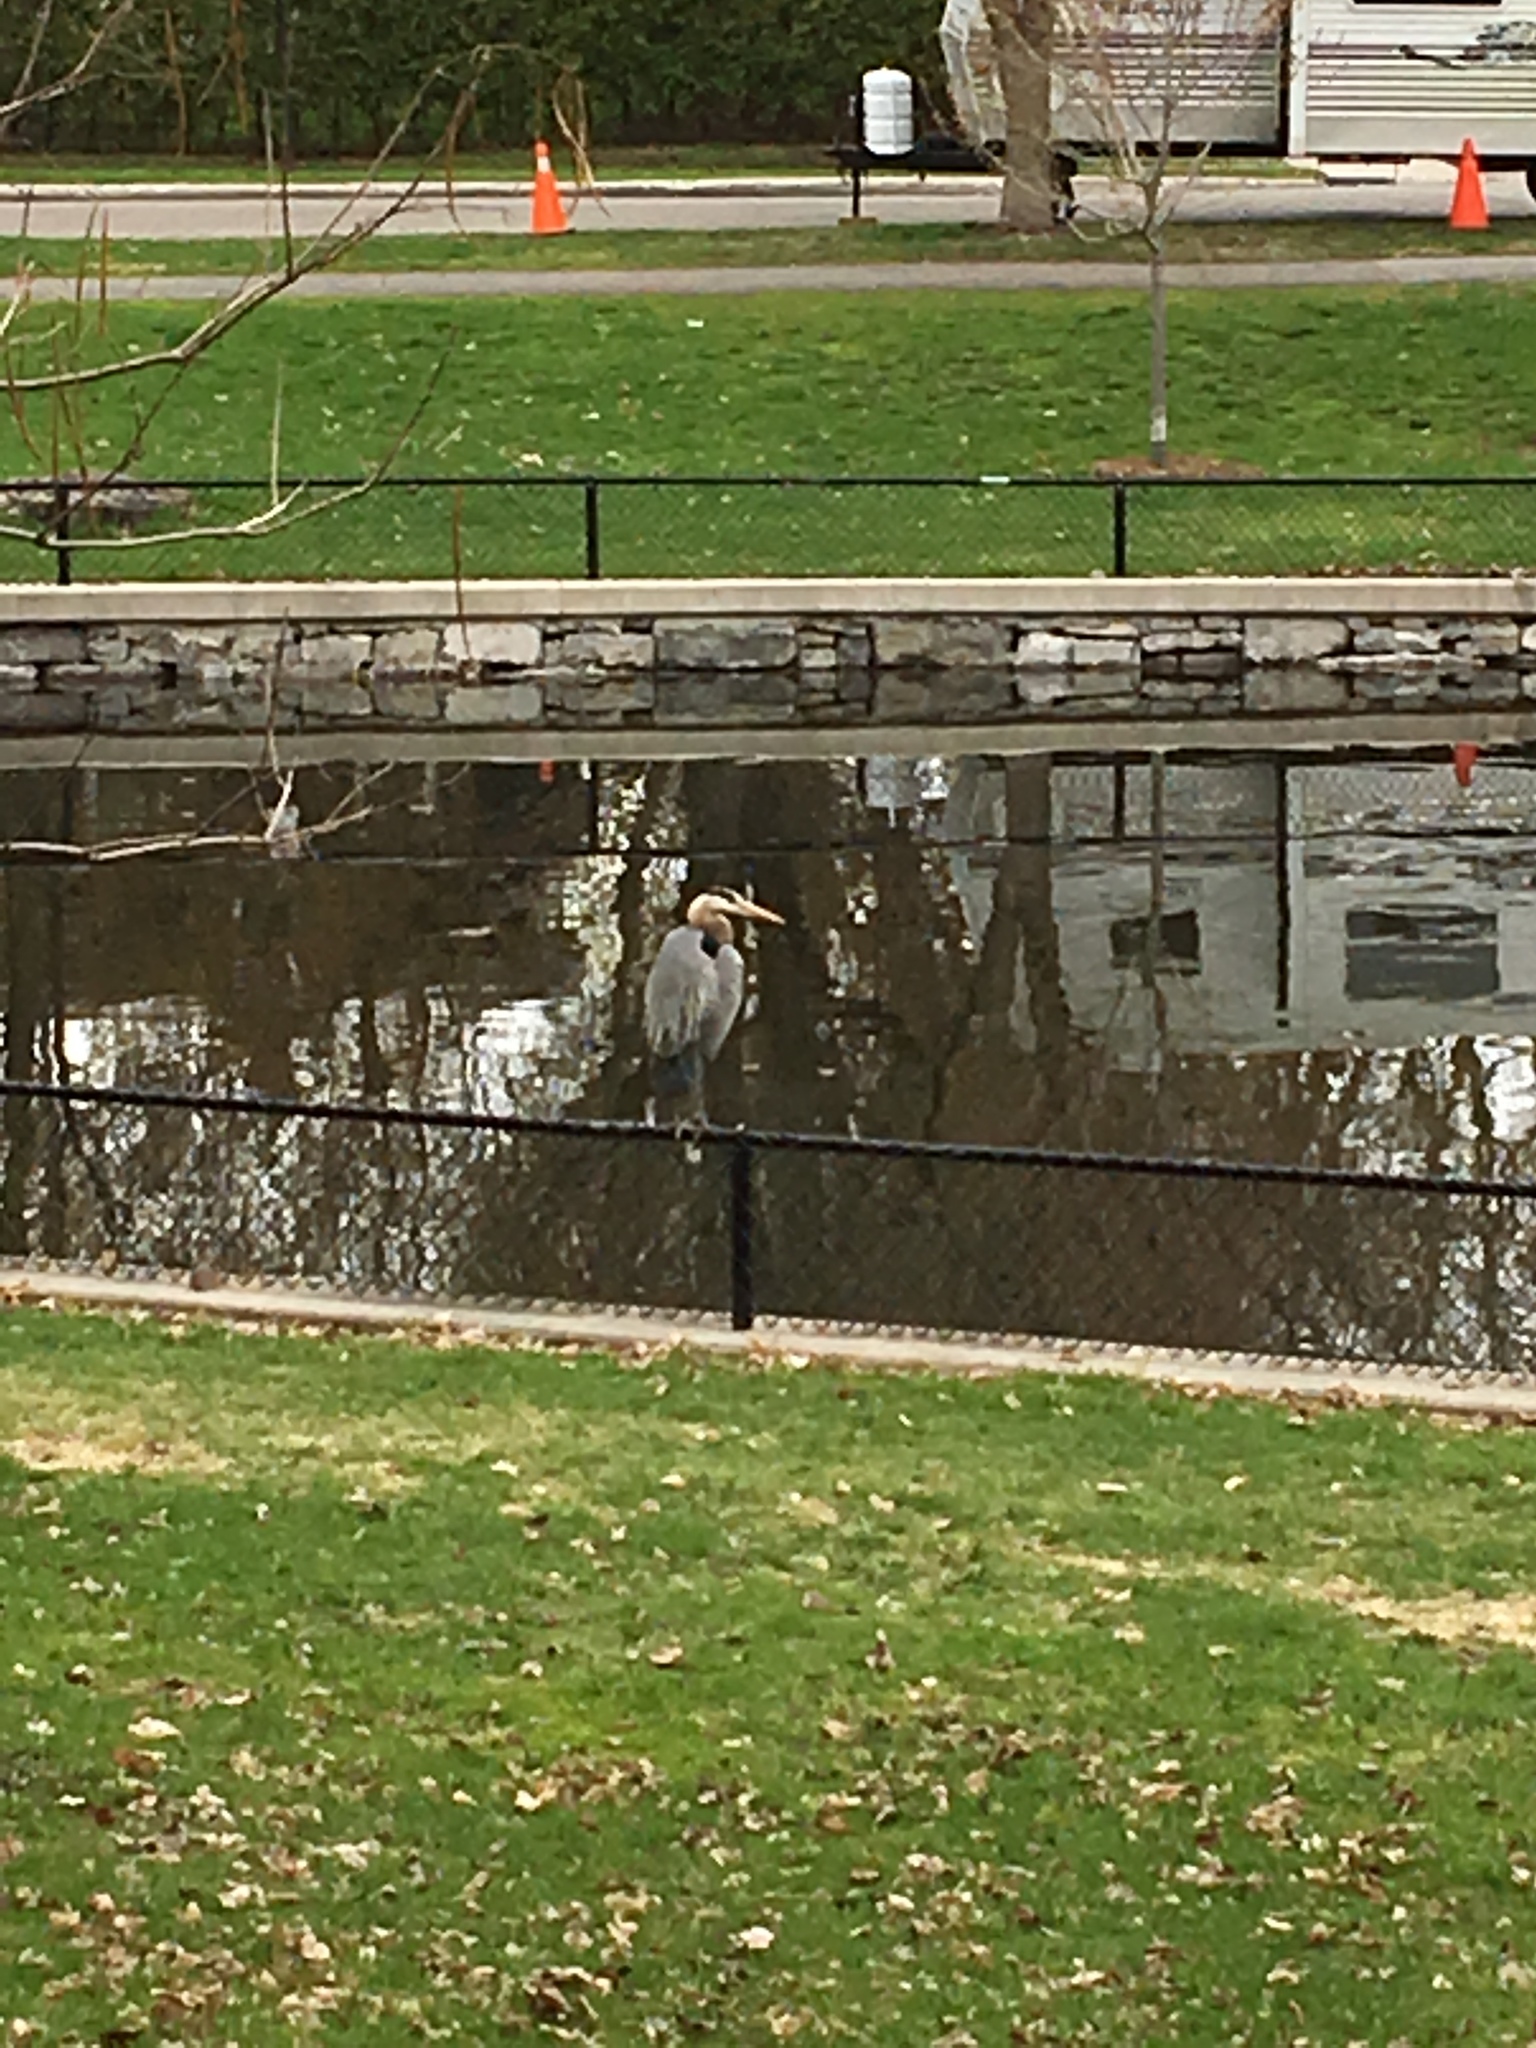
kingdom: Animalia
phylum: Chordata
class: Aves
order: Pelecaniformes
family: Ardeidae
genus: Ardea
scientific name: Ardea herodias
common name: Great blue heron
